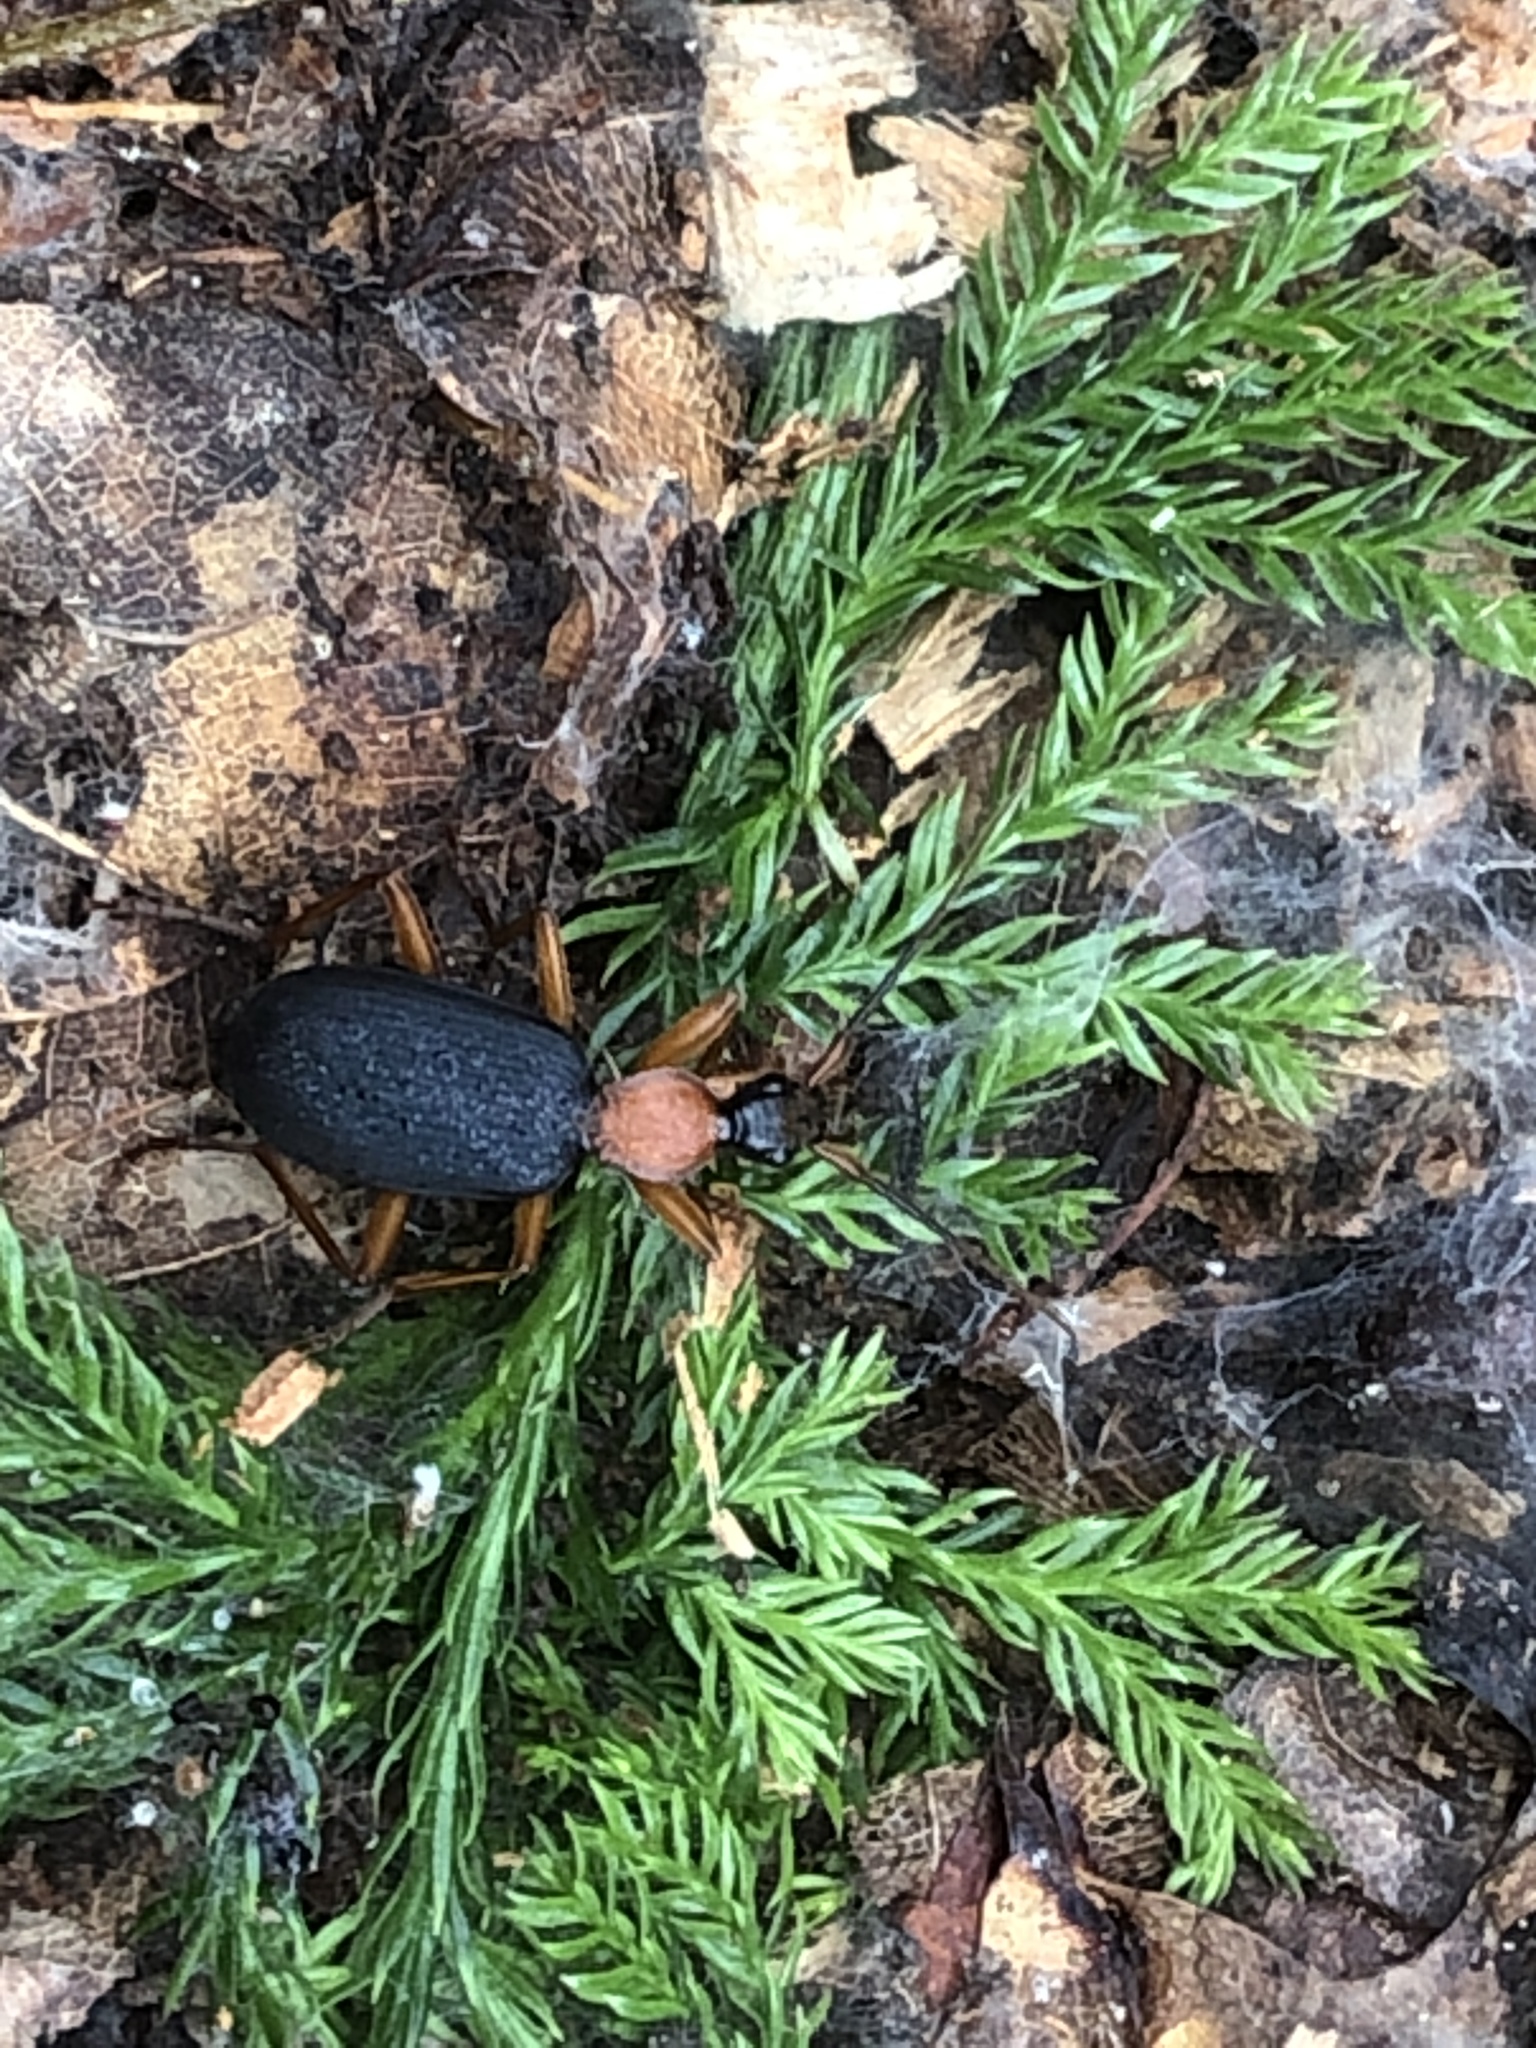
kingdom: Animalia
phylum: Arthropoda
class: Insecta
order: Coleoptera
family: Carabidae
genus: Galerita
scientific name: Galerita bicolor
